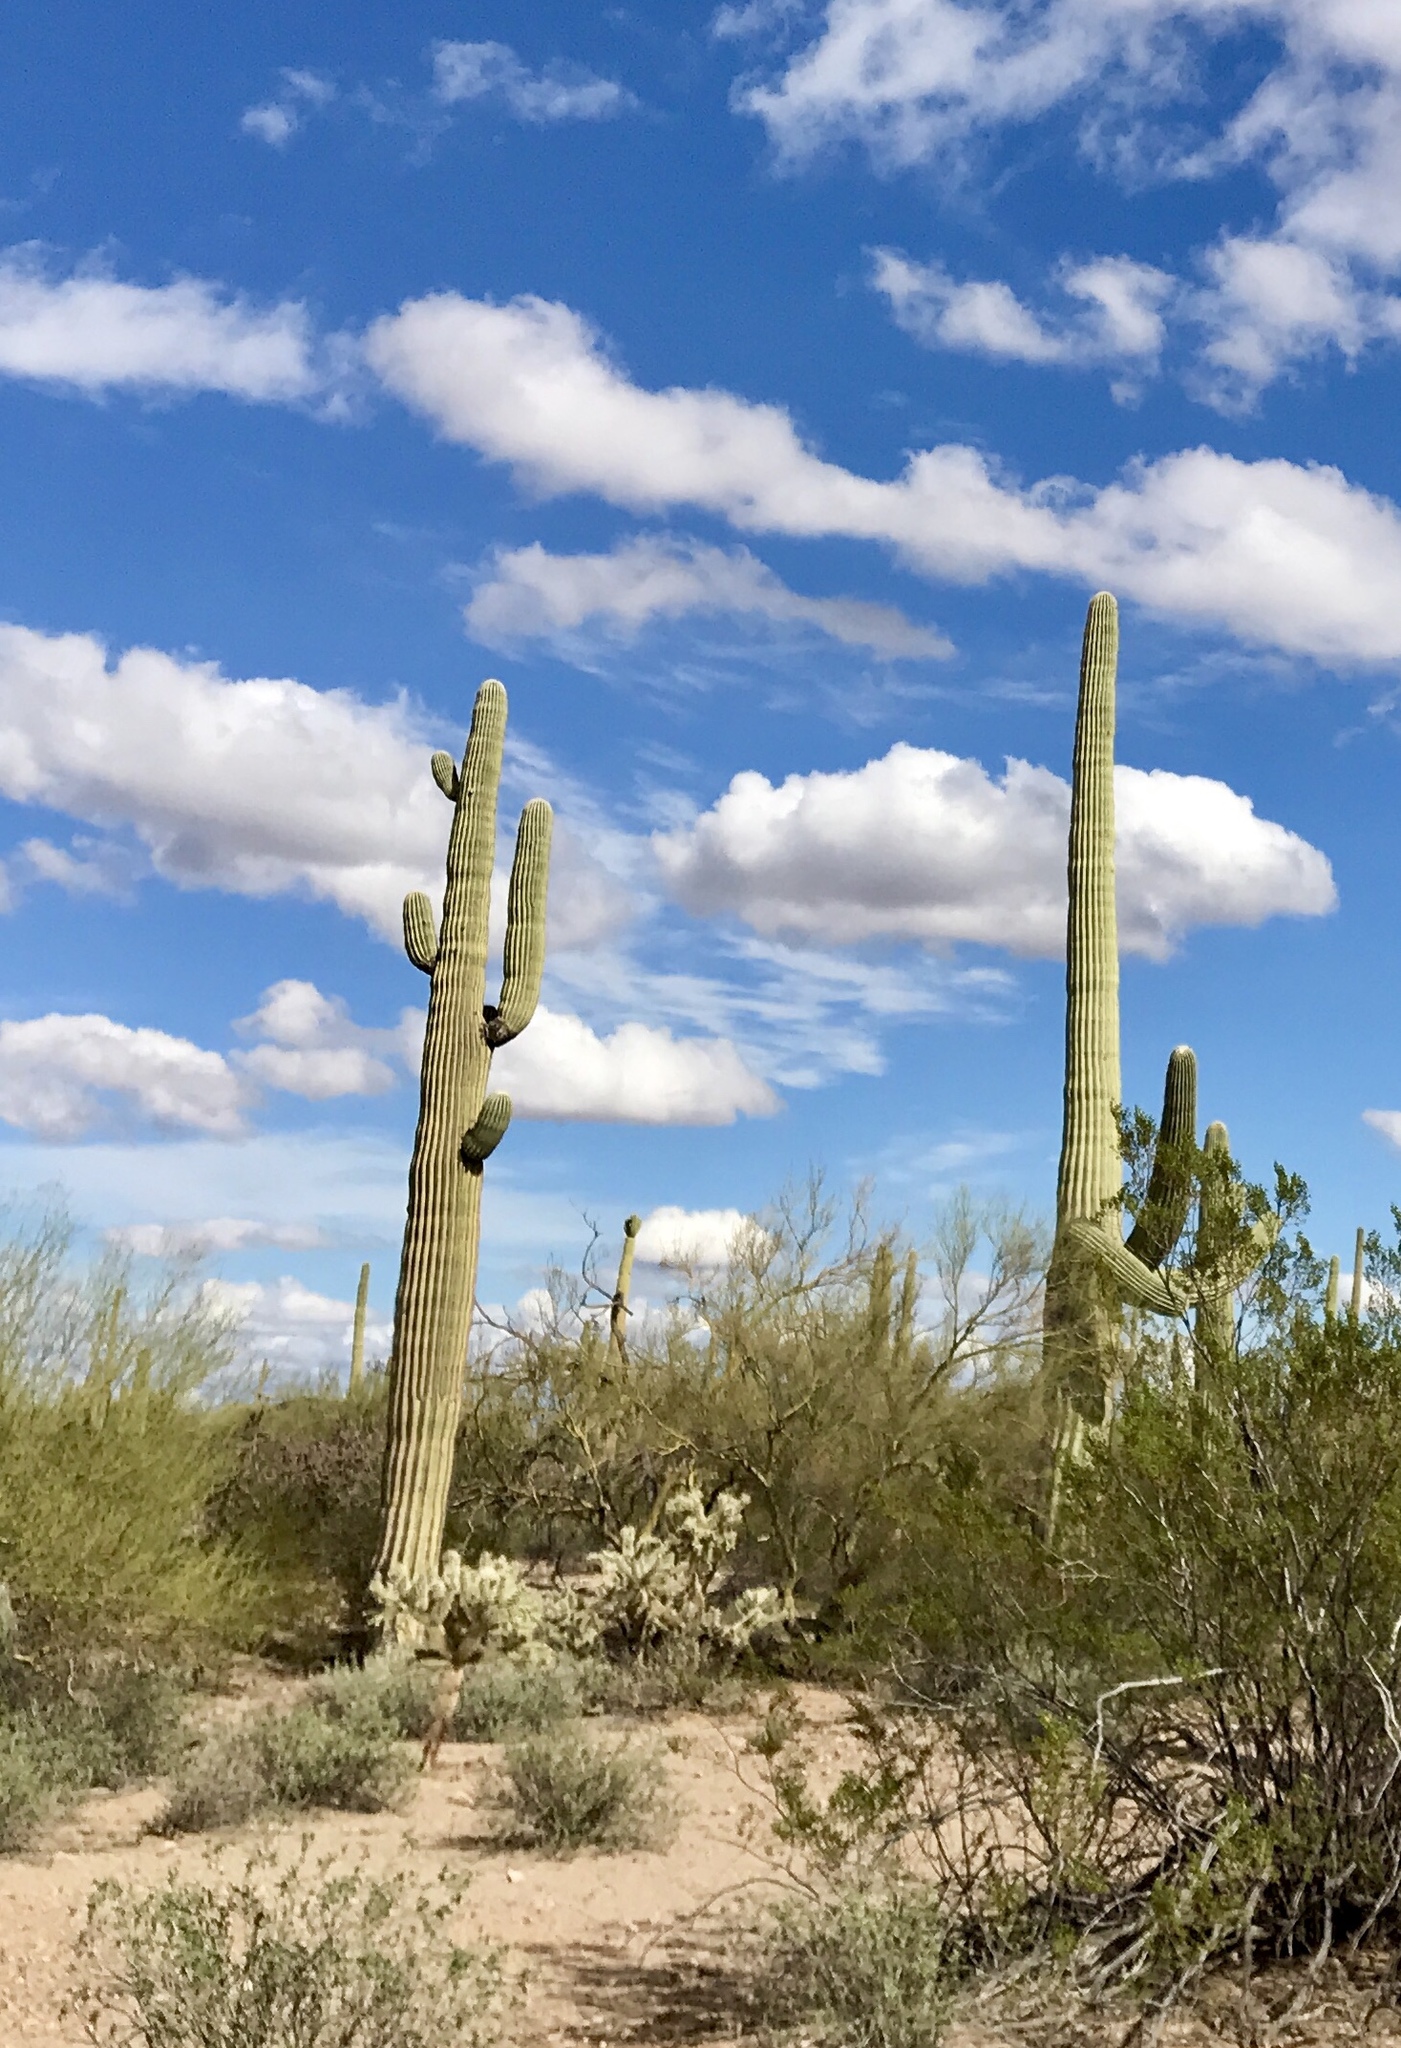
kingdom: Plantae
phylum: Tracheophyta
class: Magnoliopsida
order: Caryophyllales
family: Cactaceae
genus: Carnegiea
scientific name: Carnegiea gigantea
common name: Saguaro
